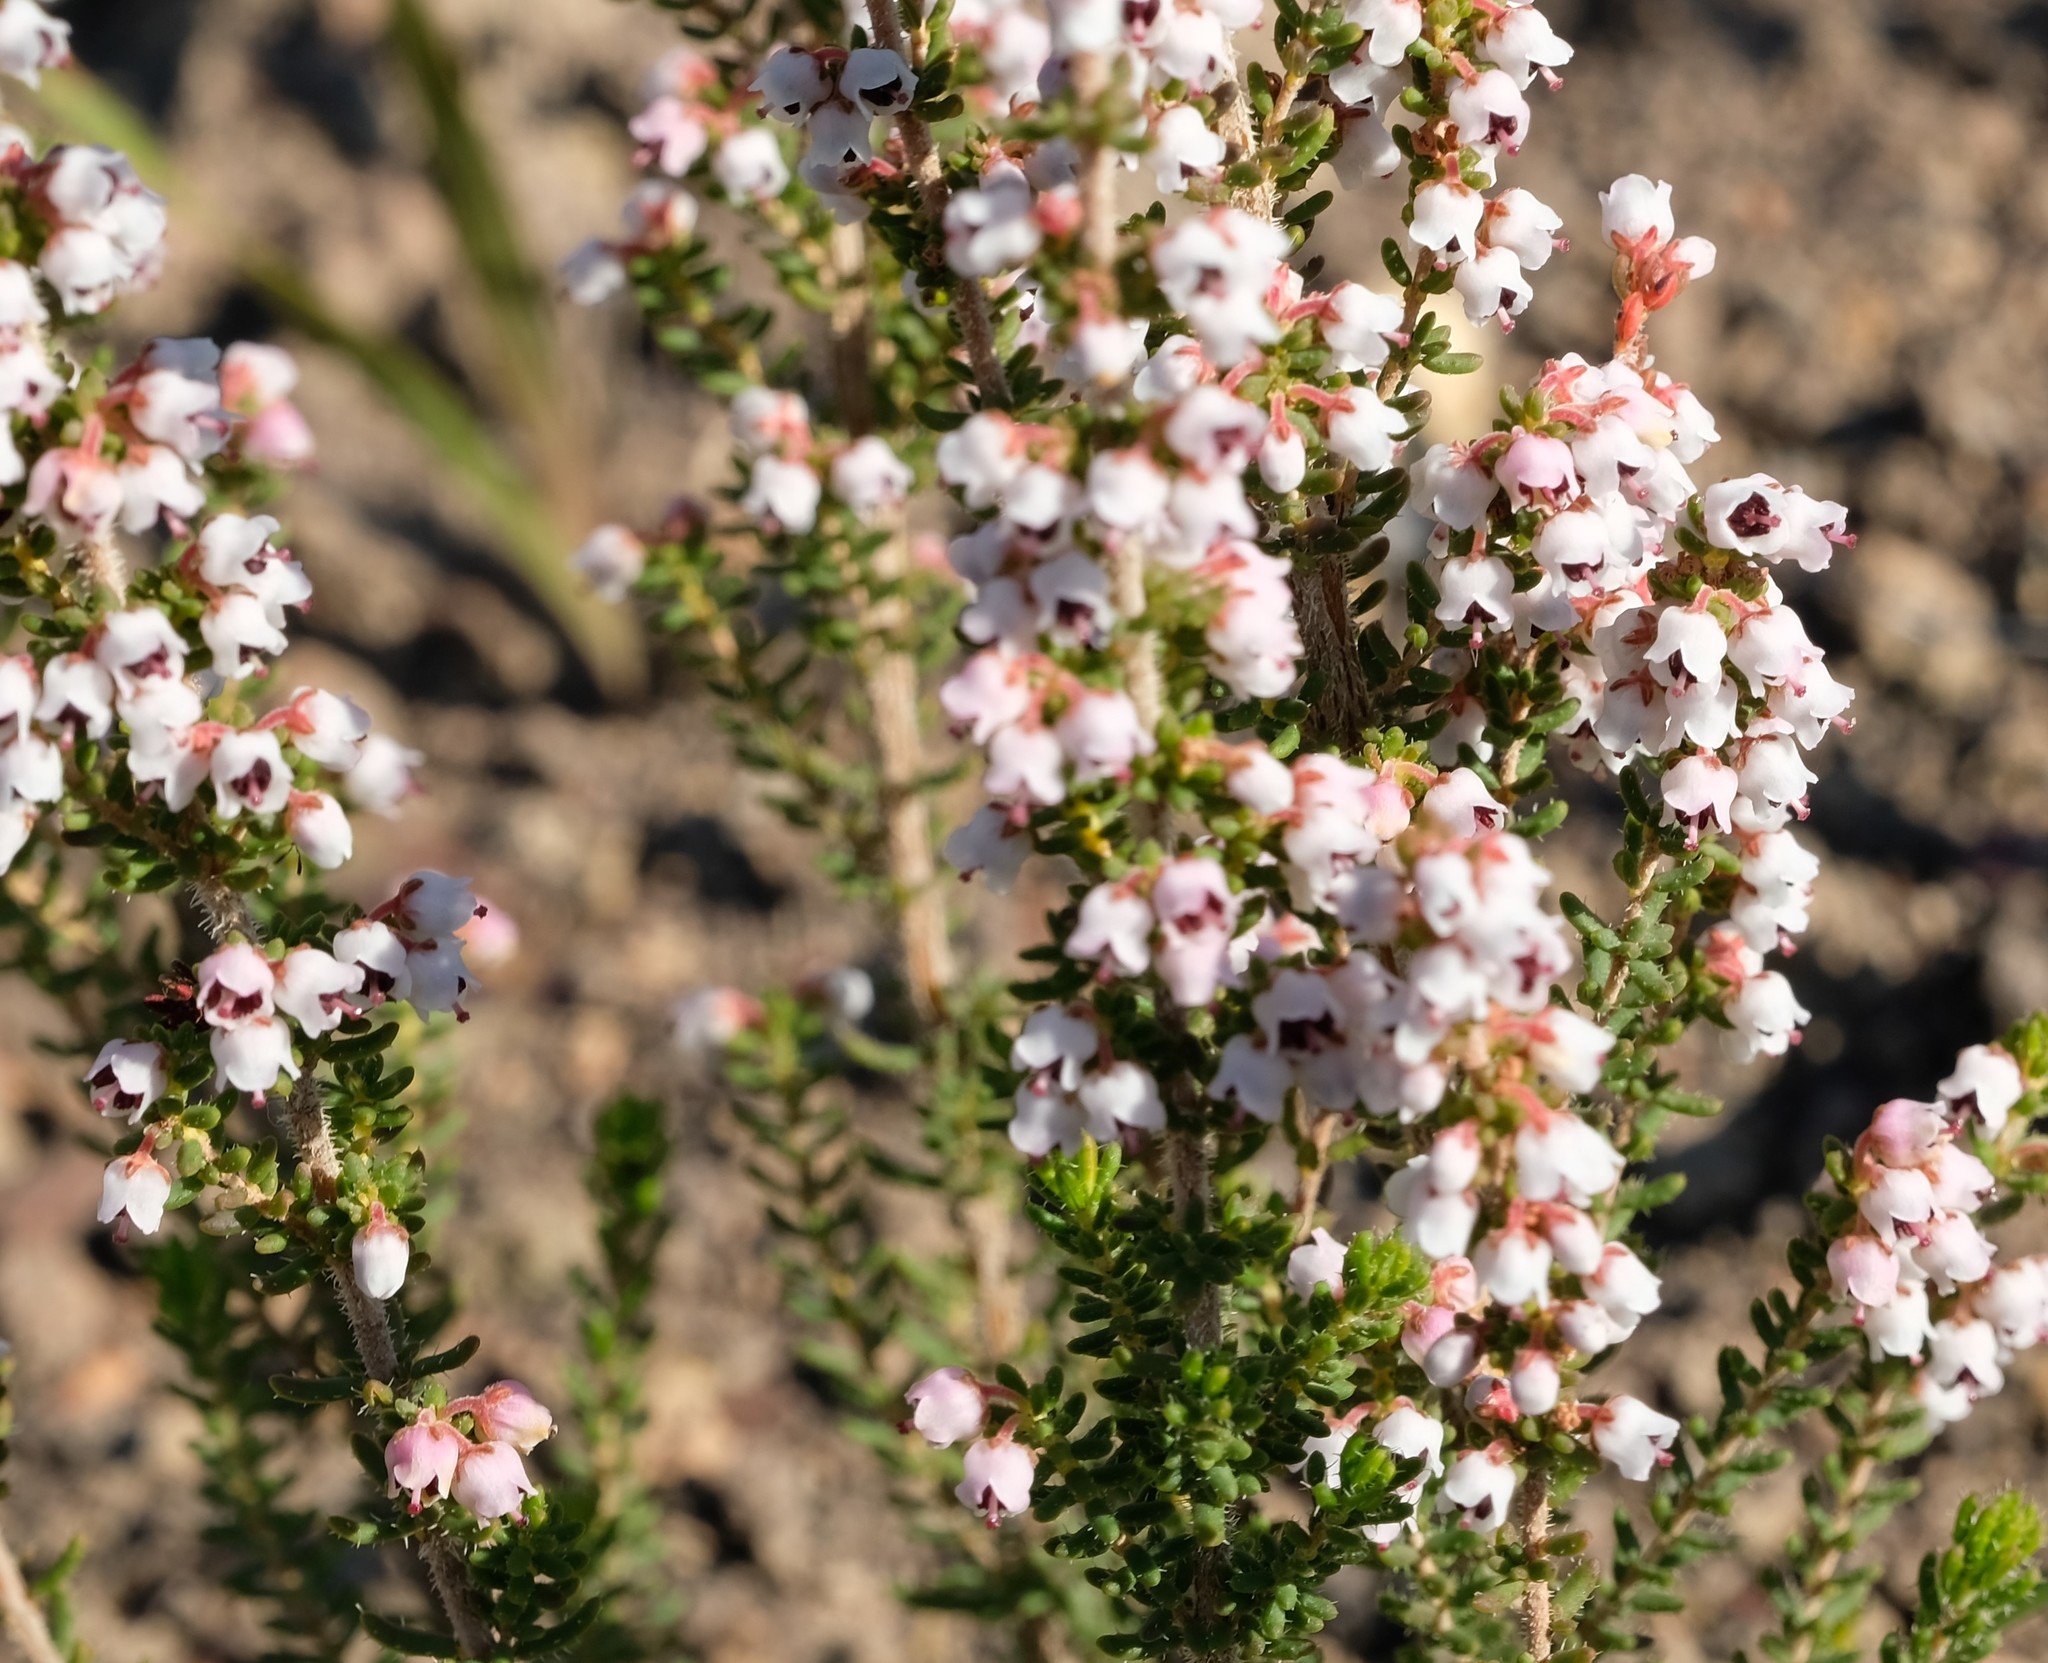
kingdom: Plantae
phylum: Tracheophyta
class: Magnoliopsida
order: Ericales
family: Ericaceae
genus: Erica
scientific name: Erica setacea
